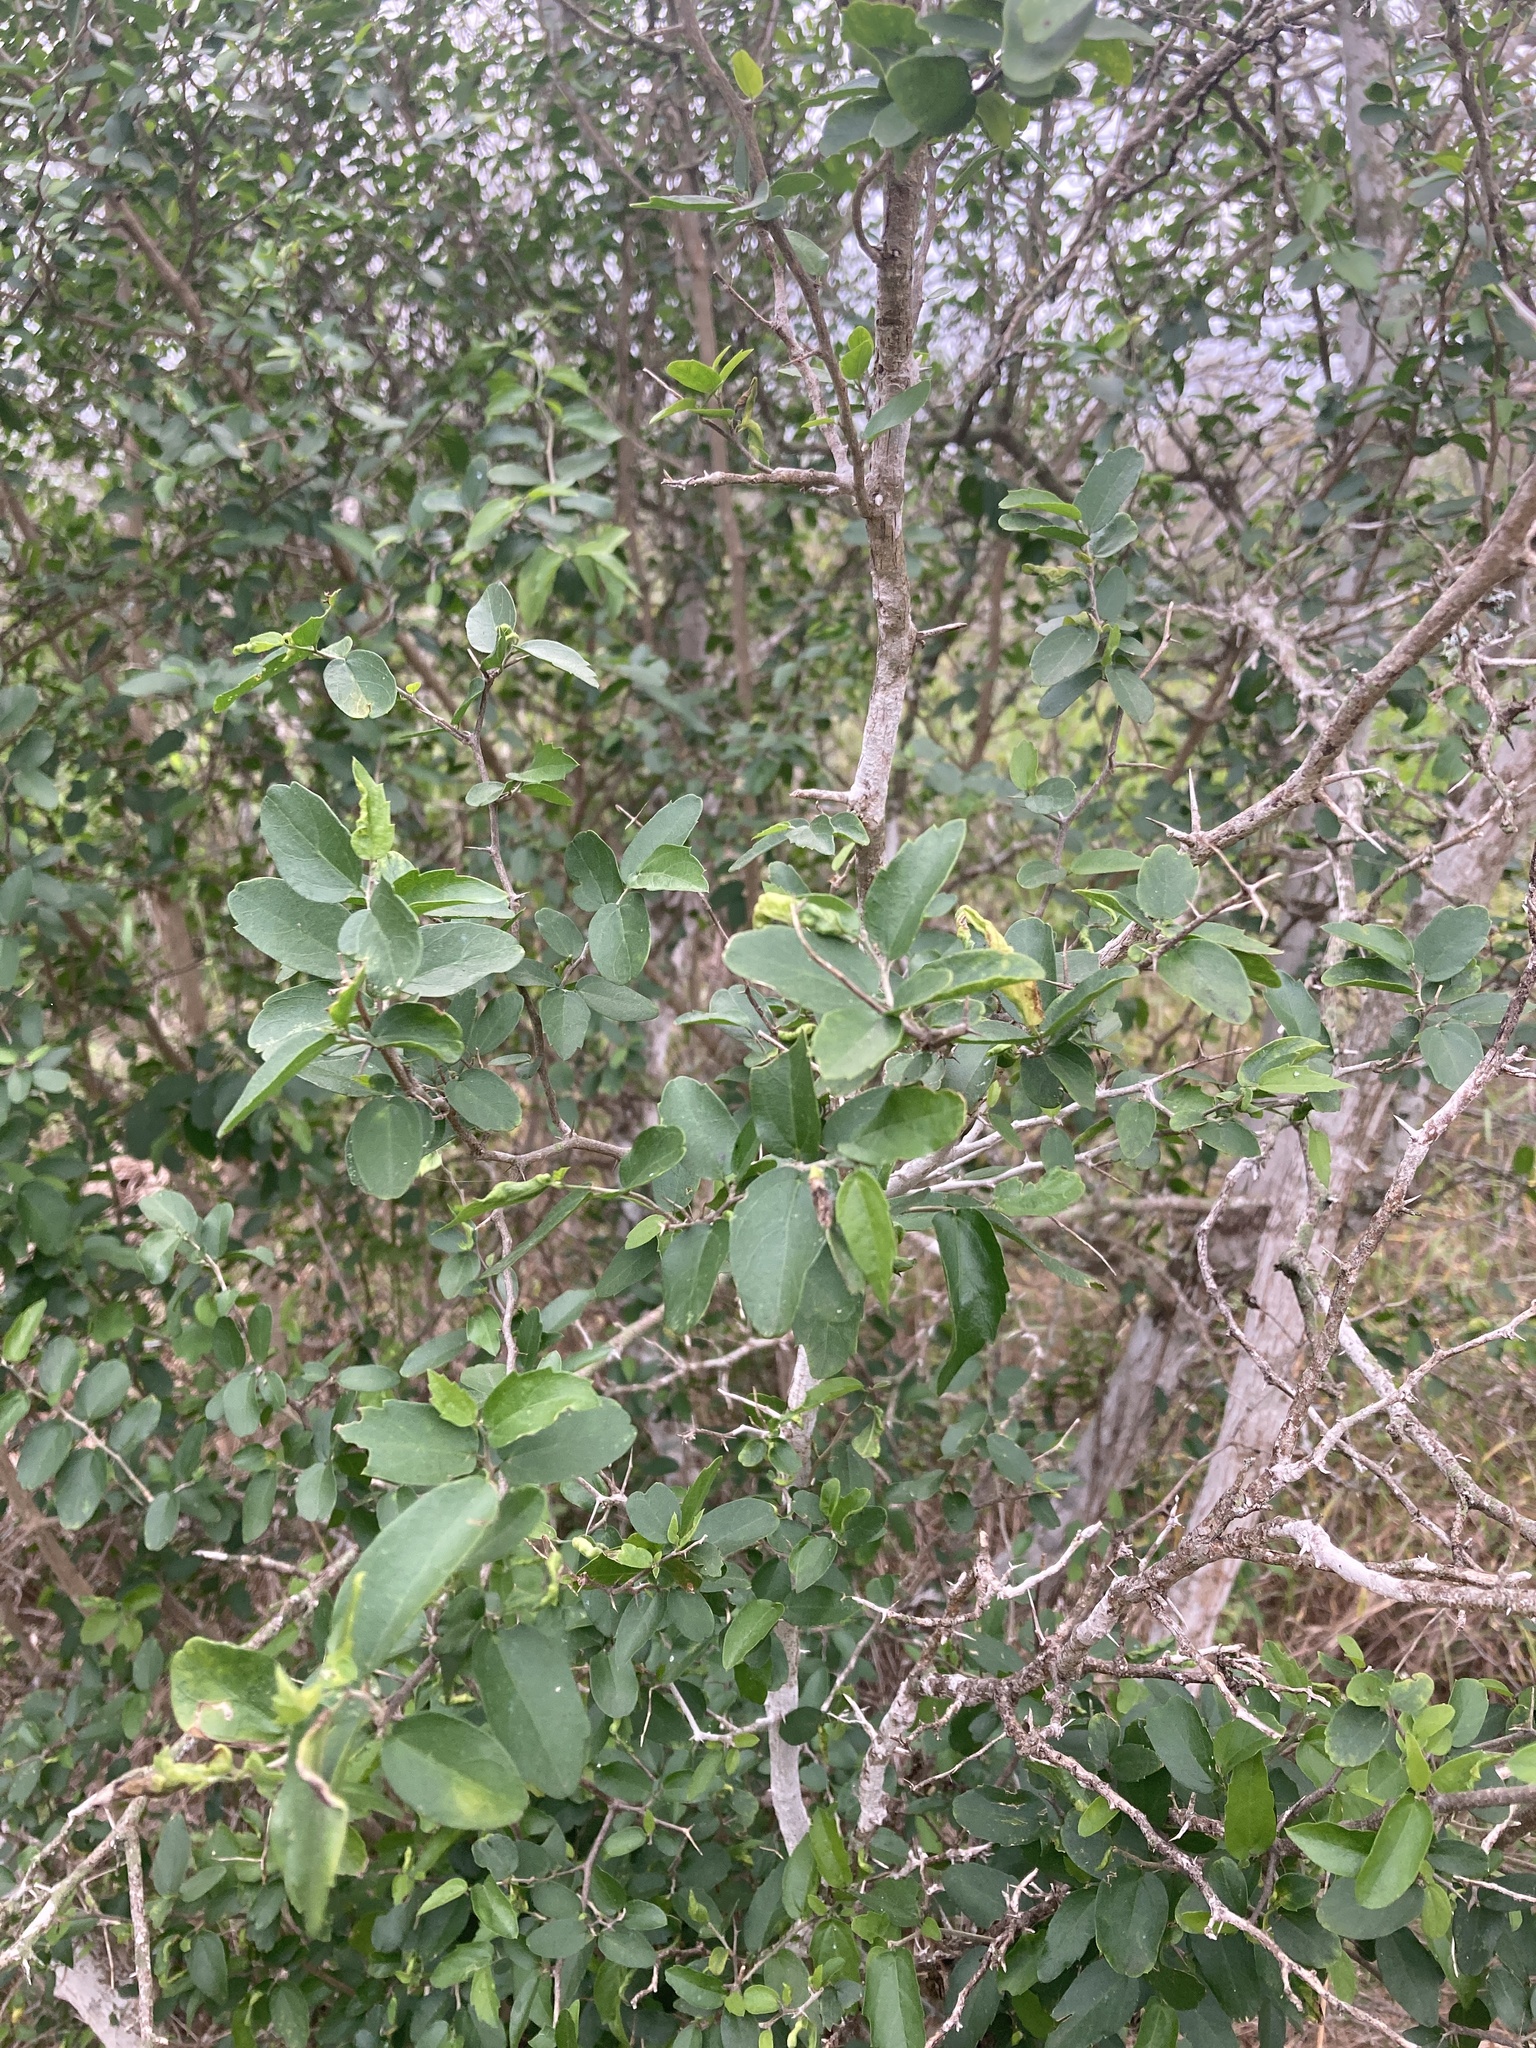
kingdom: Plantae
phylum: Tracheophyta
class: Magnoliopsida
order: Rosales
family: Cannabaceae
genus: Celtis
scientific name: Celtis pallida
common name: Desert hackberry
